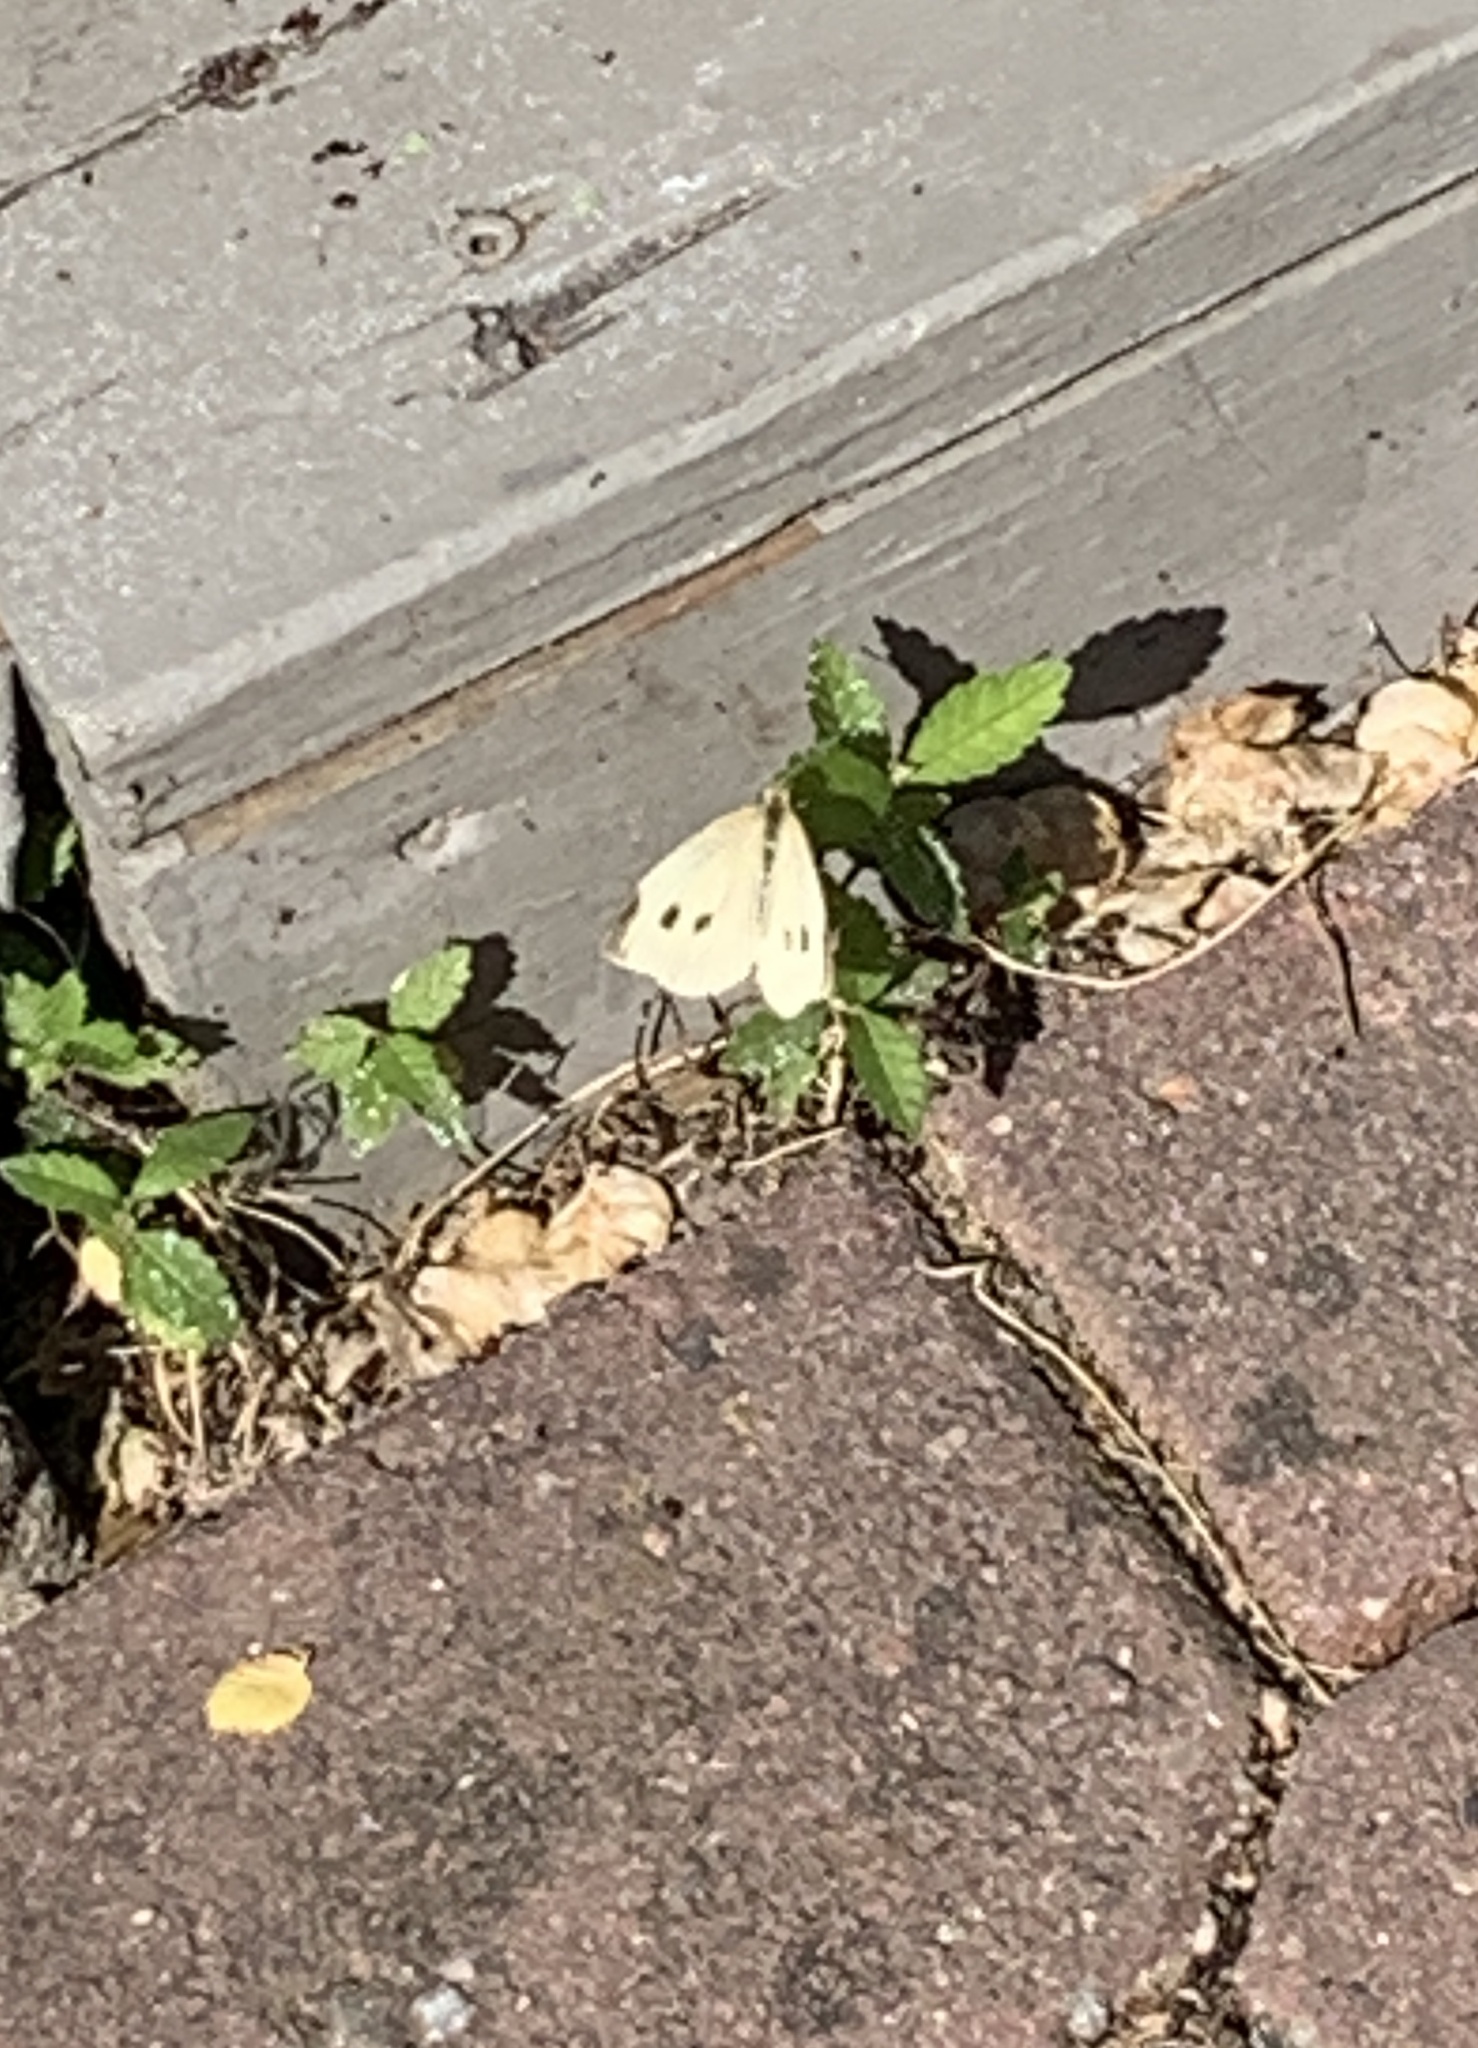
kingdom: Animalia
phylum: Arthropoda
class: Insecta
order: Lepidoptera
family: Pieridae
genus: Pieris
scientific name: Pieris rapae
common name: Small white
